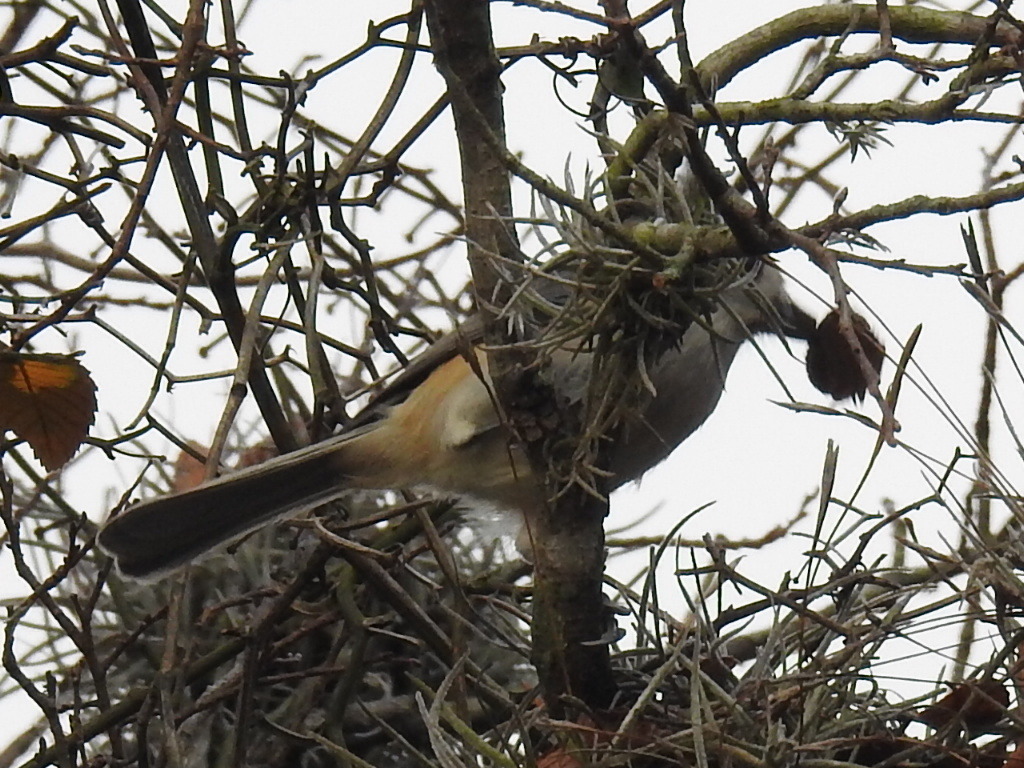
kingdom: Animalia
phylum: Chordata
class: Aves
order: Passeriformes
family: Paridae
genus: Baeolophus
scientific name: Baeolophus atricristatus
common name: Black-crested titmouse
